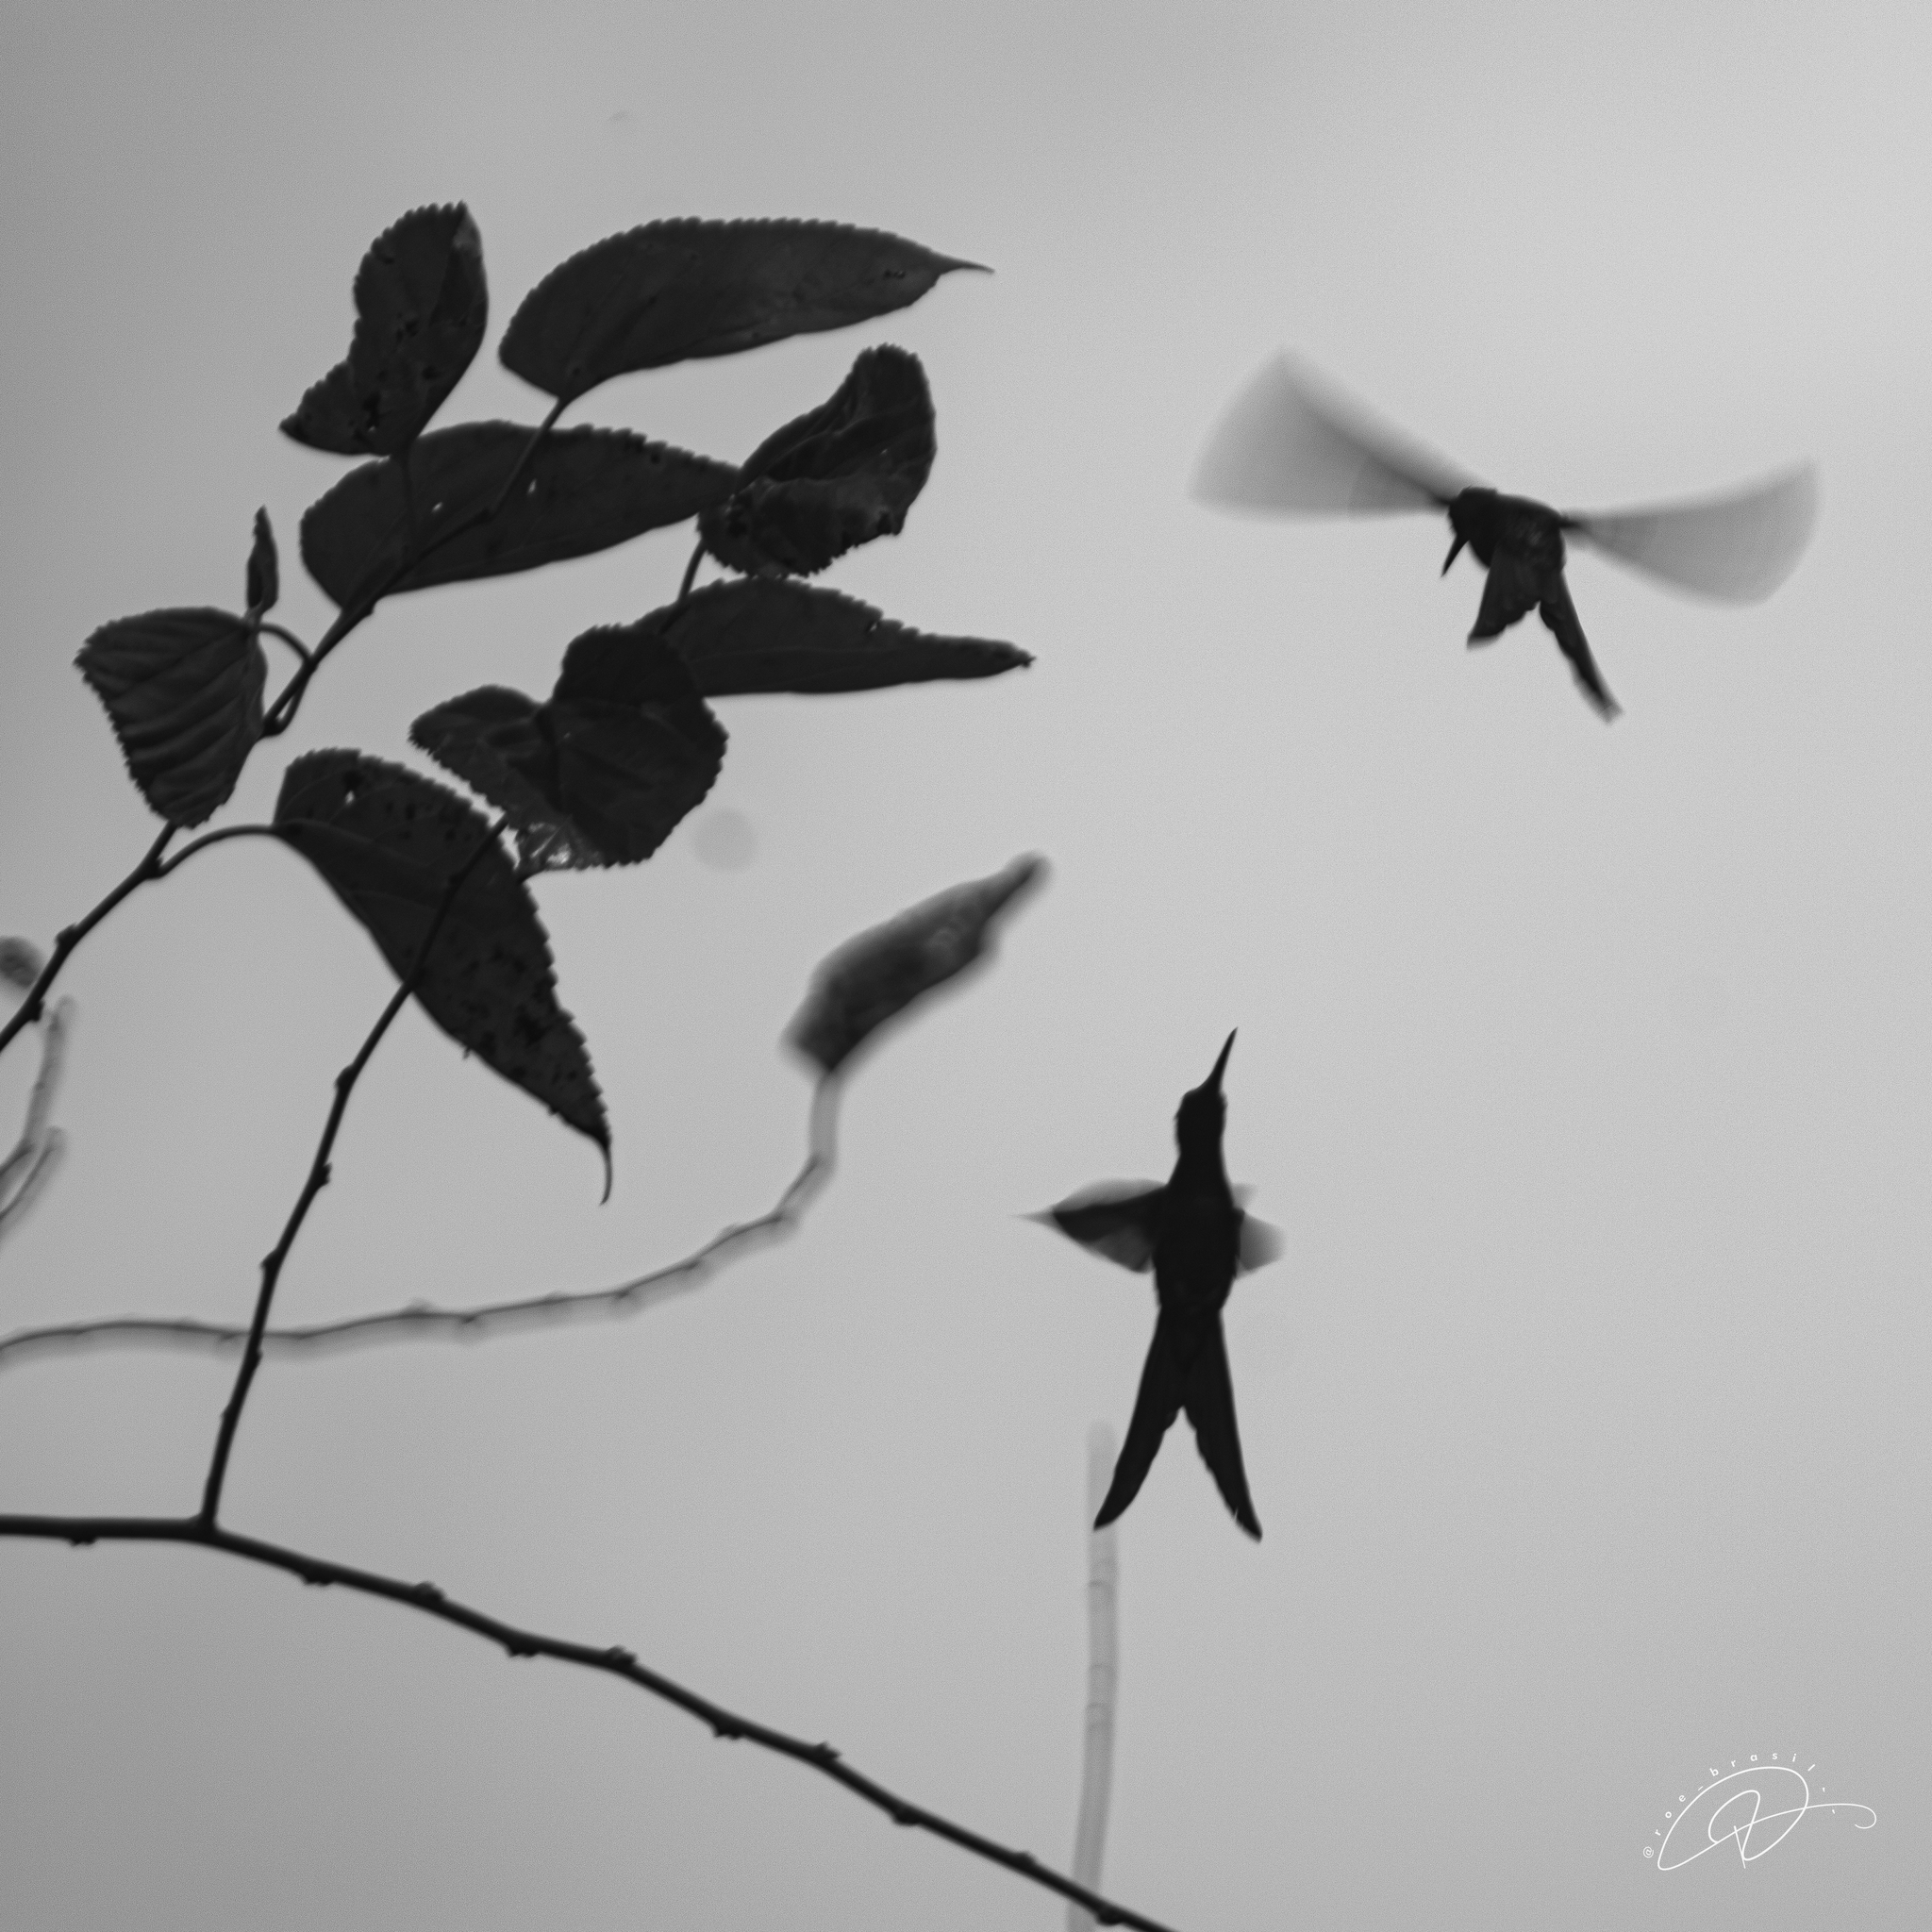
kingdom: Animalia
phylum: Chordata
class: Aves
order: Apodiformes
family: Trochilidae
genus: Eupetomena
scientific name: Eupetomena macroura
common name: Swallow-tailed hummingbird
